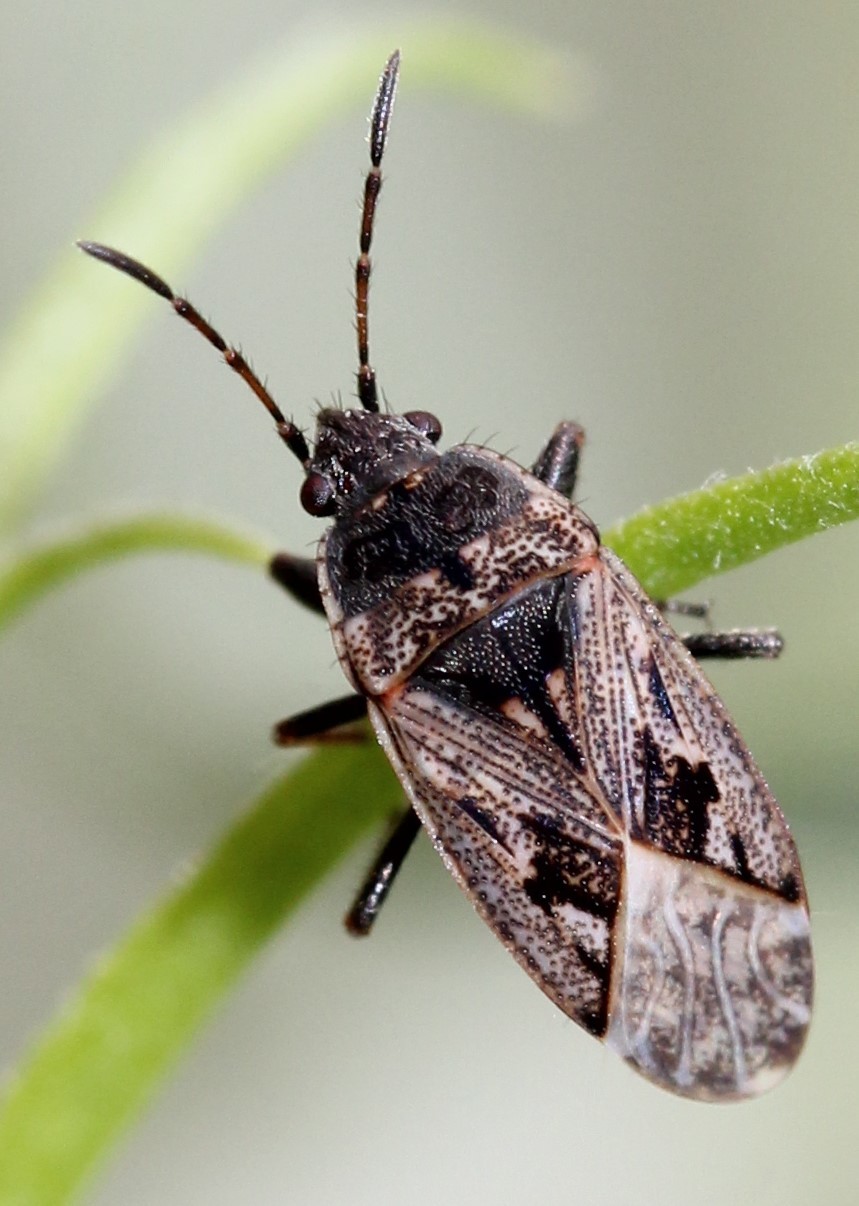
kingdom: Animalia
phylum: Arthropoda
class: Insecta
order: Hemiptera
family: Rhyparochromidae
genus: Sphragisticus
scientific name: Sphragisticus nebulosus
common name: Dirt-colored seed bug
